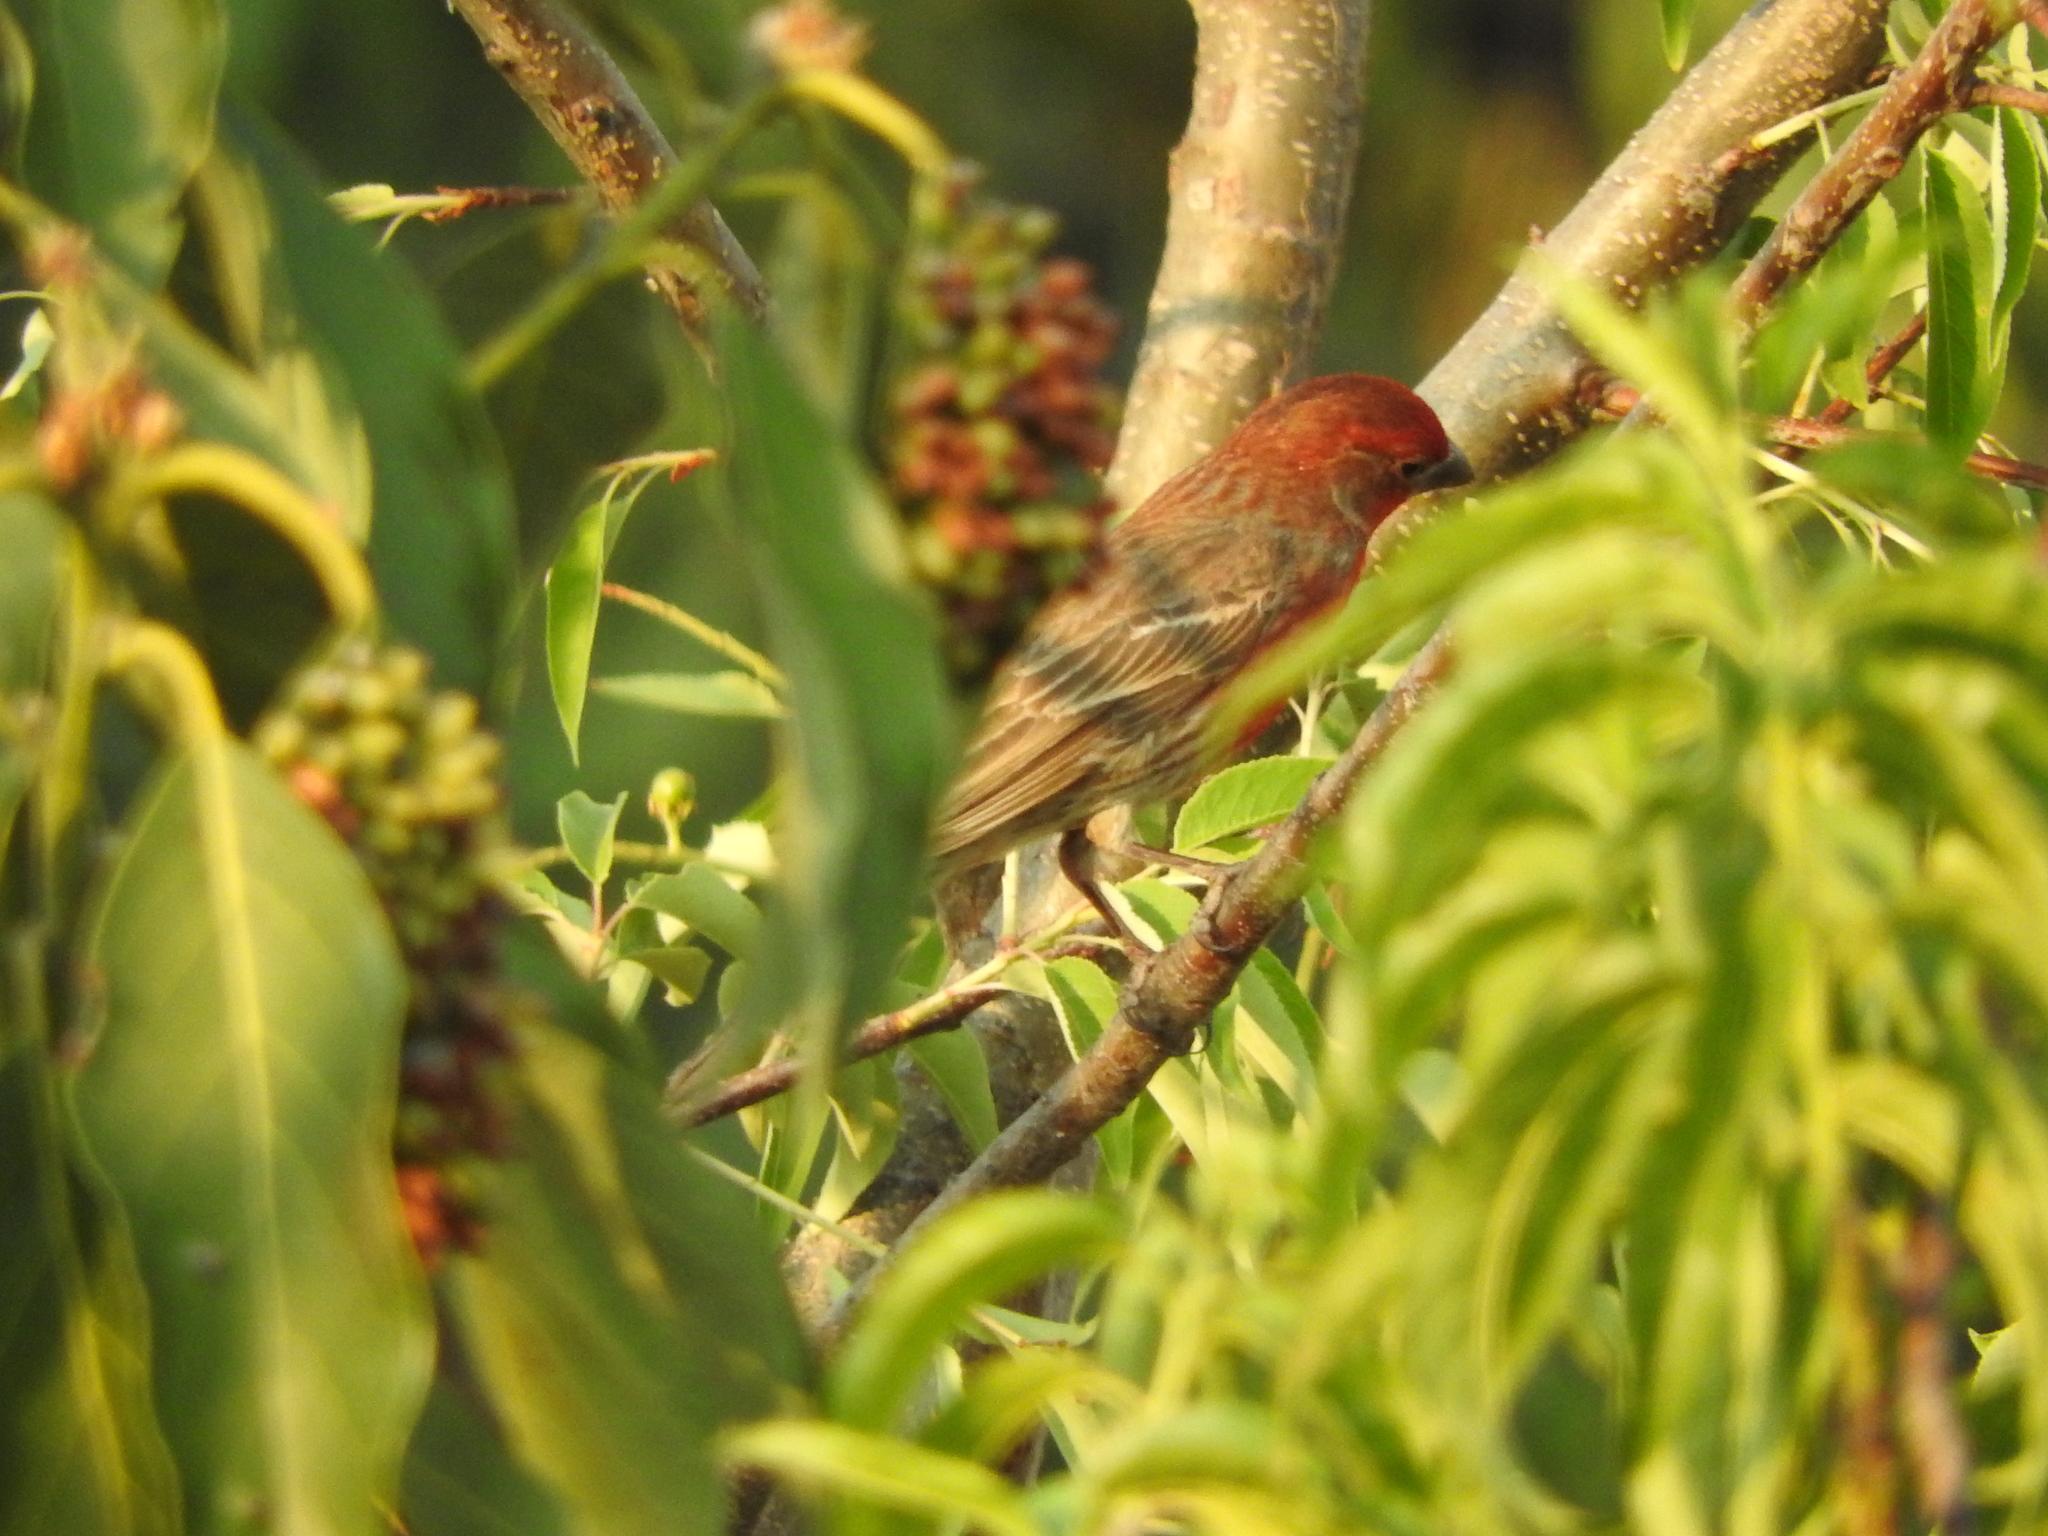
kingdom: Animalia
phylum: Chordata
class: Aves
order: Passeriformes
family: Fringillidae
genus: Haemorhous
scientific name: Haemorhous mexicanus
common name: House finch
